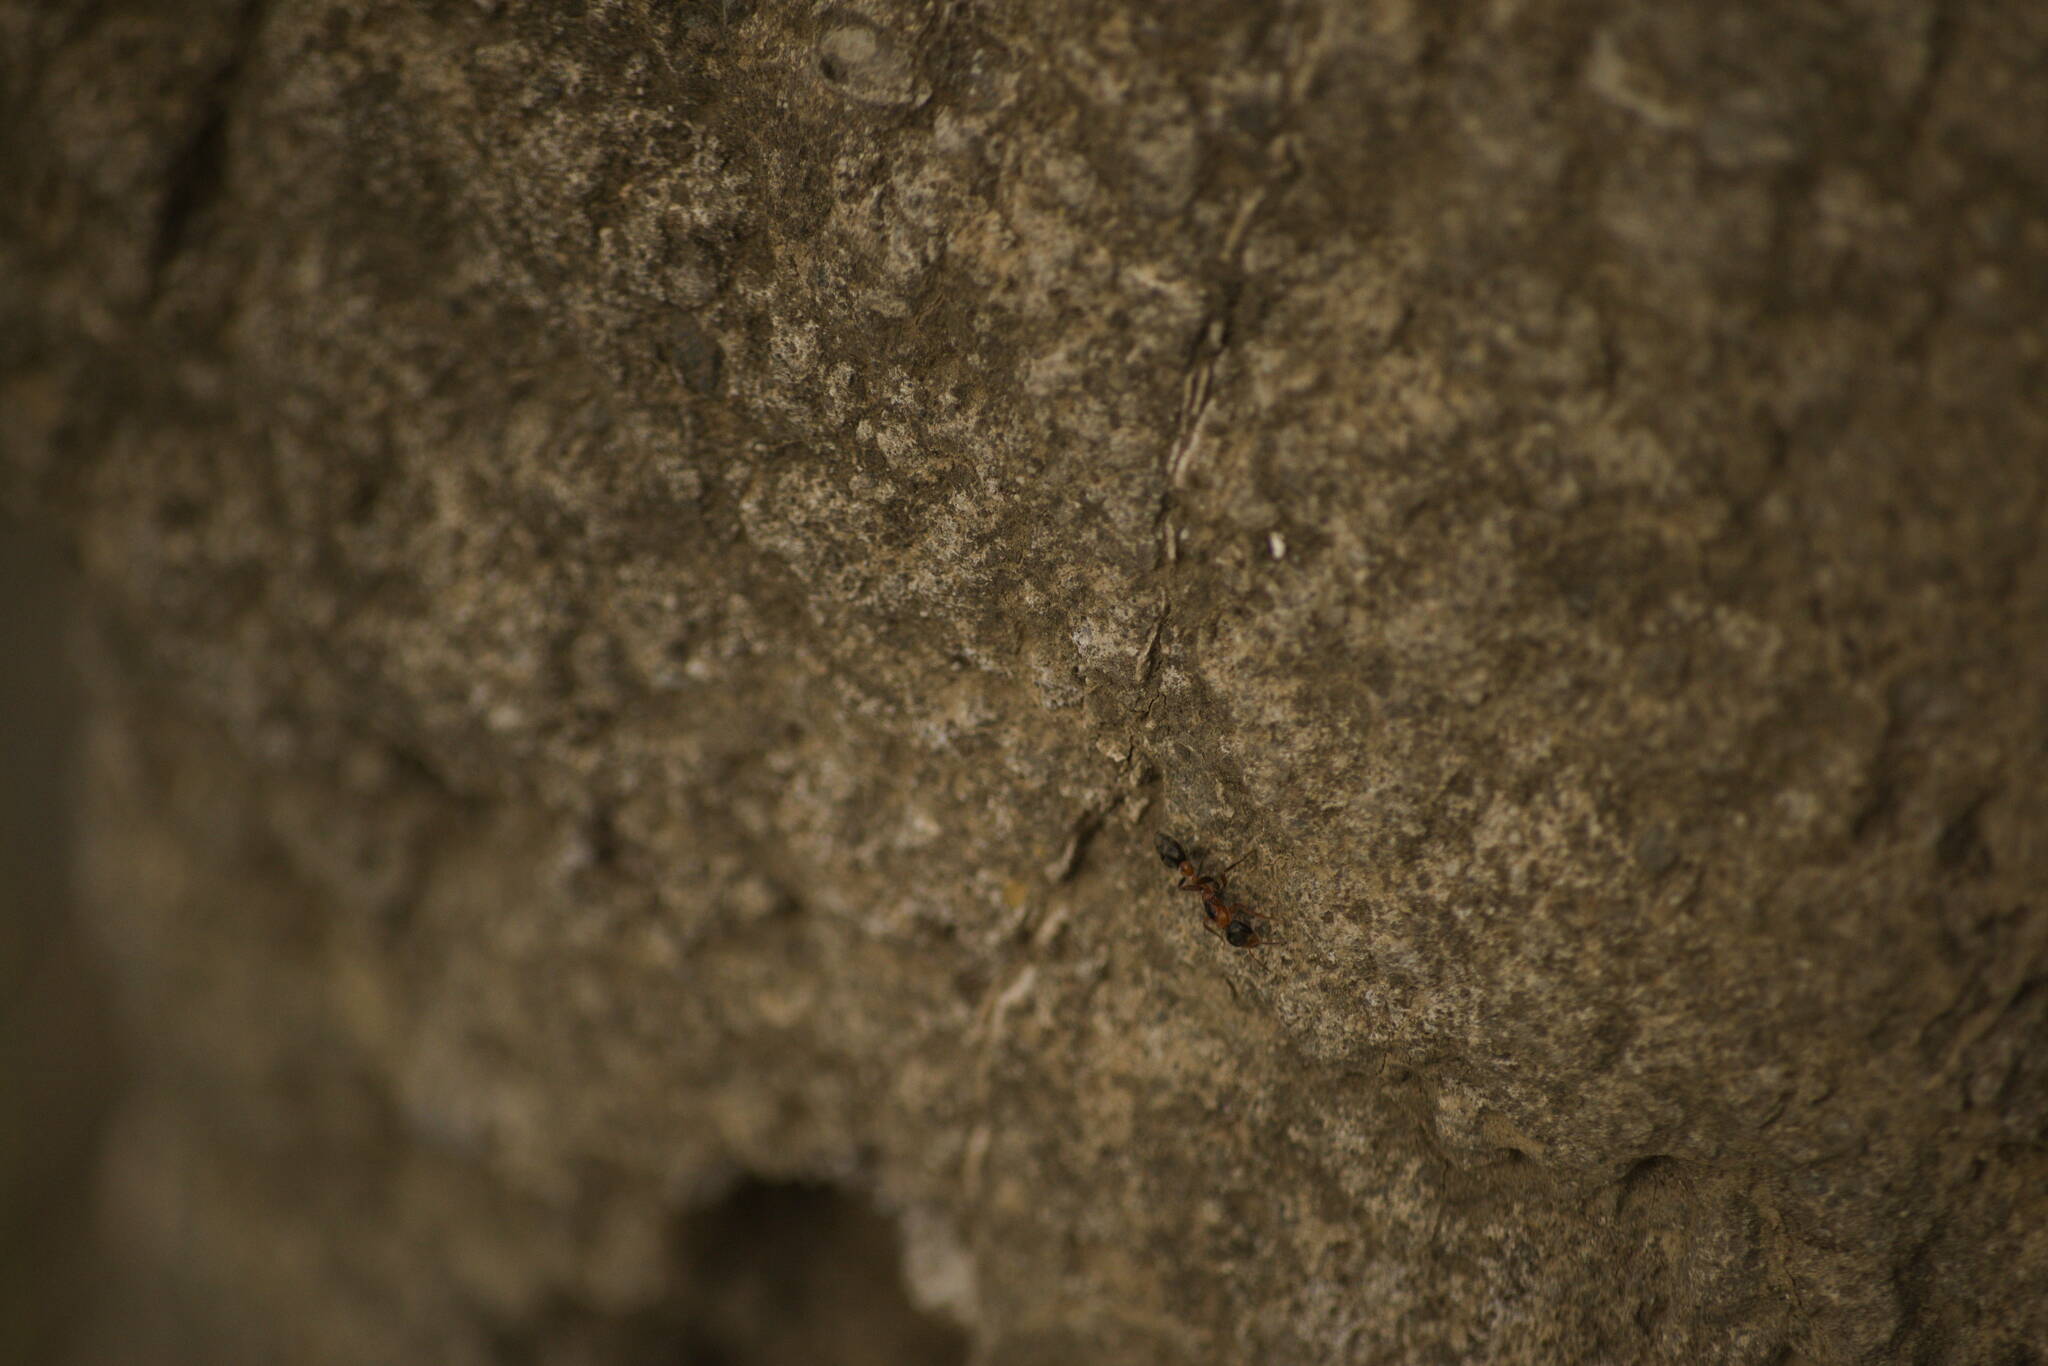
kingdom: Animalia
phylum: Arthropoda
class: Insecta
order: Hymenoptera
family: Formicidae
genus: Pseudomyrmex
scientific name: Pseudomyrmex gracilis
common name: Graceful twig ant
